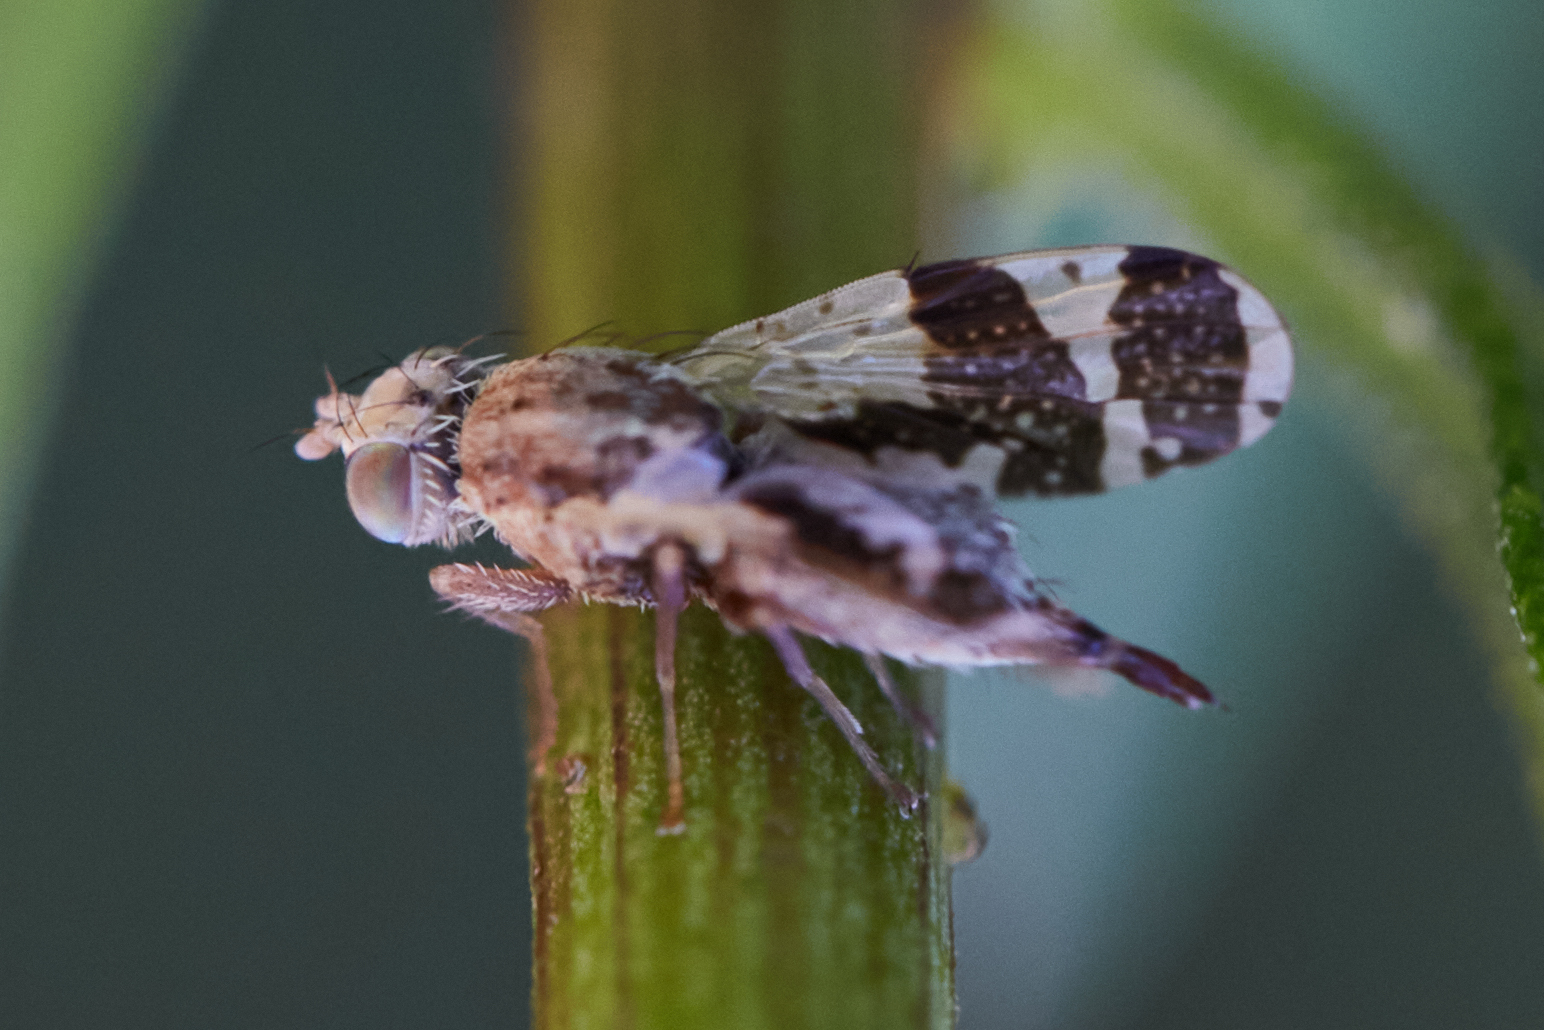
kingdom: Animalia
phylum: Arthropoda
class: Insecta
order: Diptera
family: Tephritidae
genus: Tephritis
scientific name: Tephritis rufipennis
